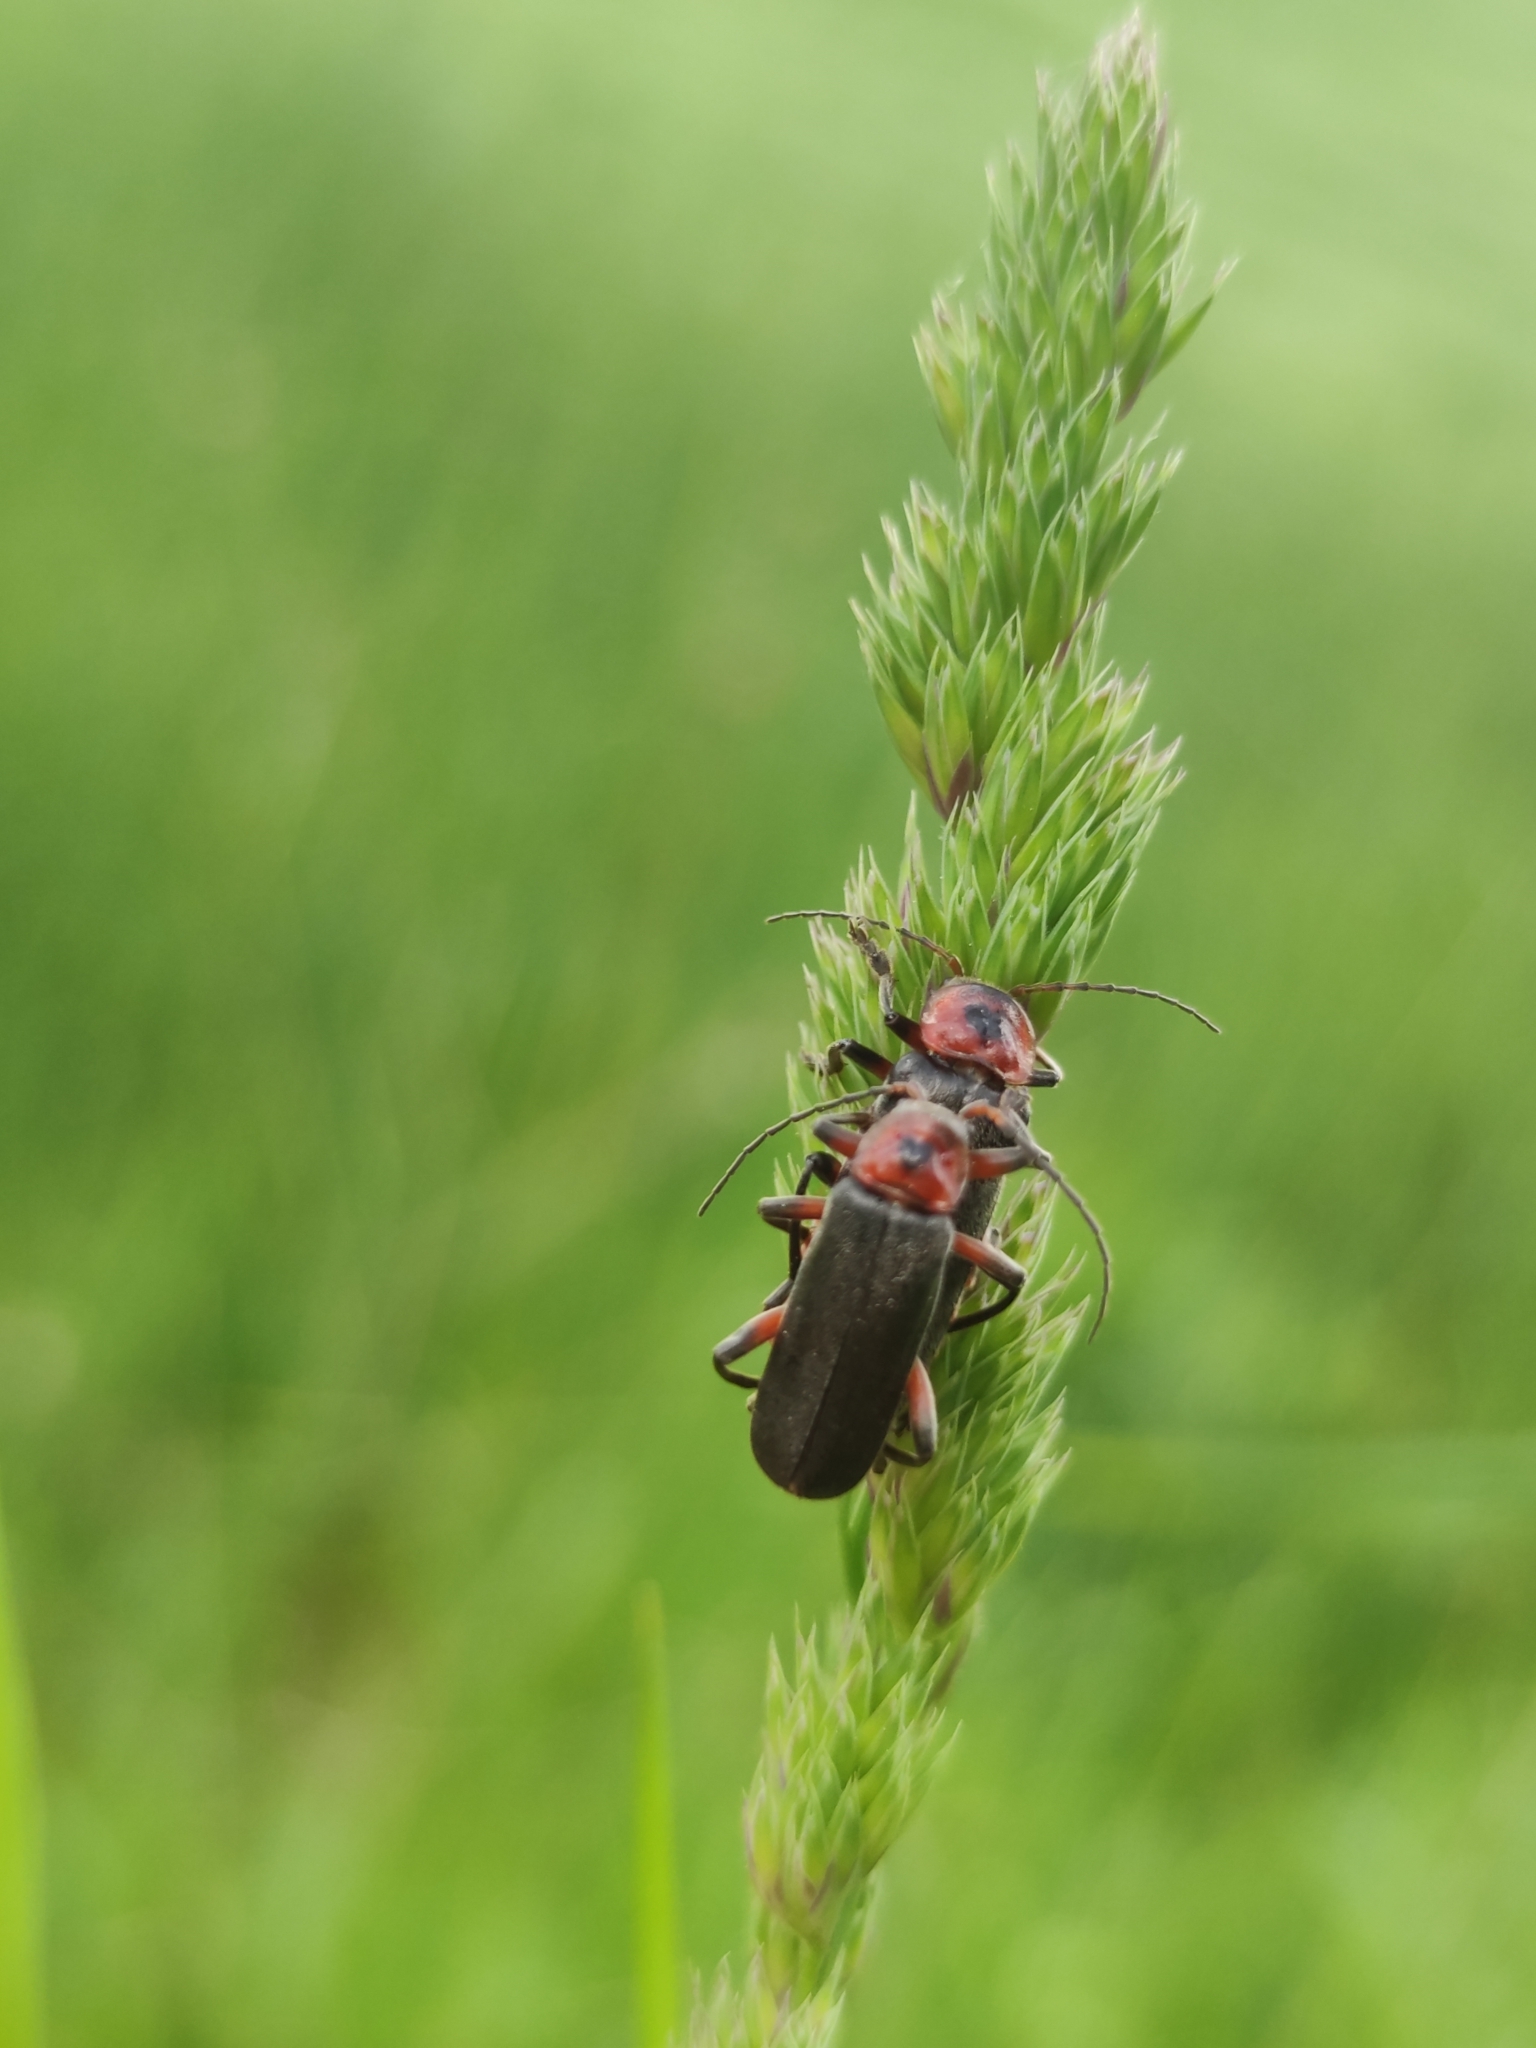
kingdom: Animalia
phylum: Arthropoda
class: Insecta
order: Coleoptera
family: Cantharidae
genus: Cantharis
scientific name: Cantharis rustica
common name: Soldier beetle
